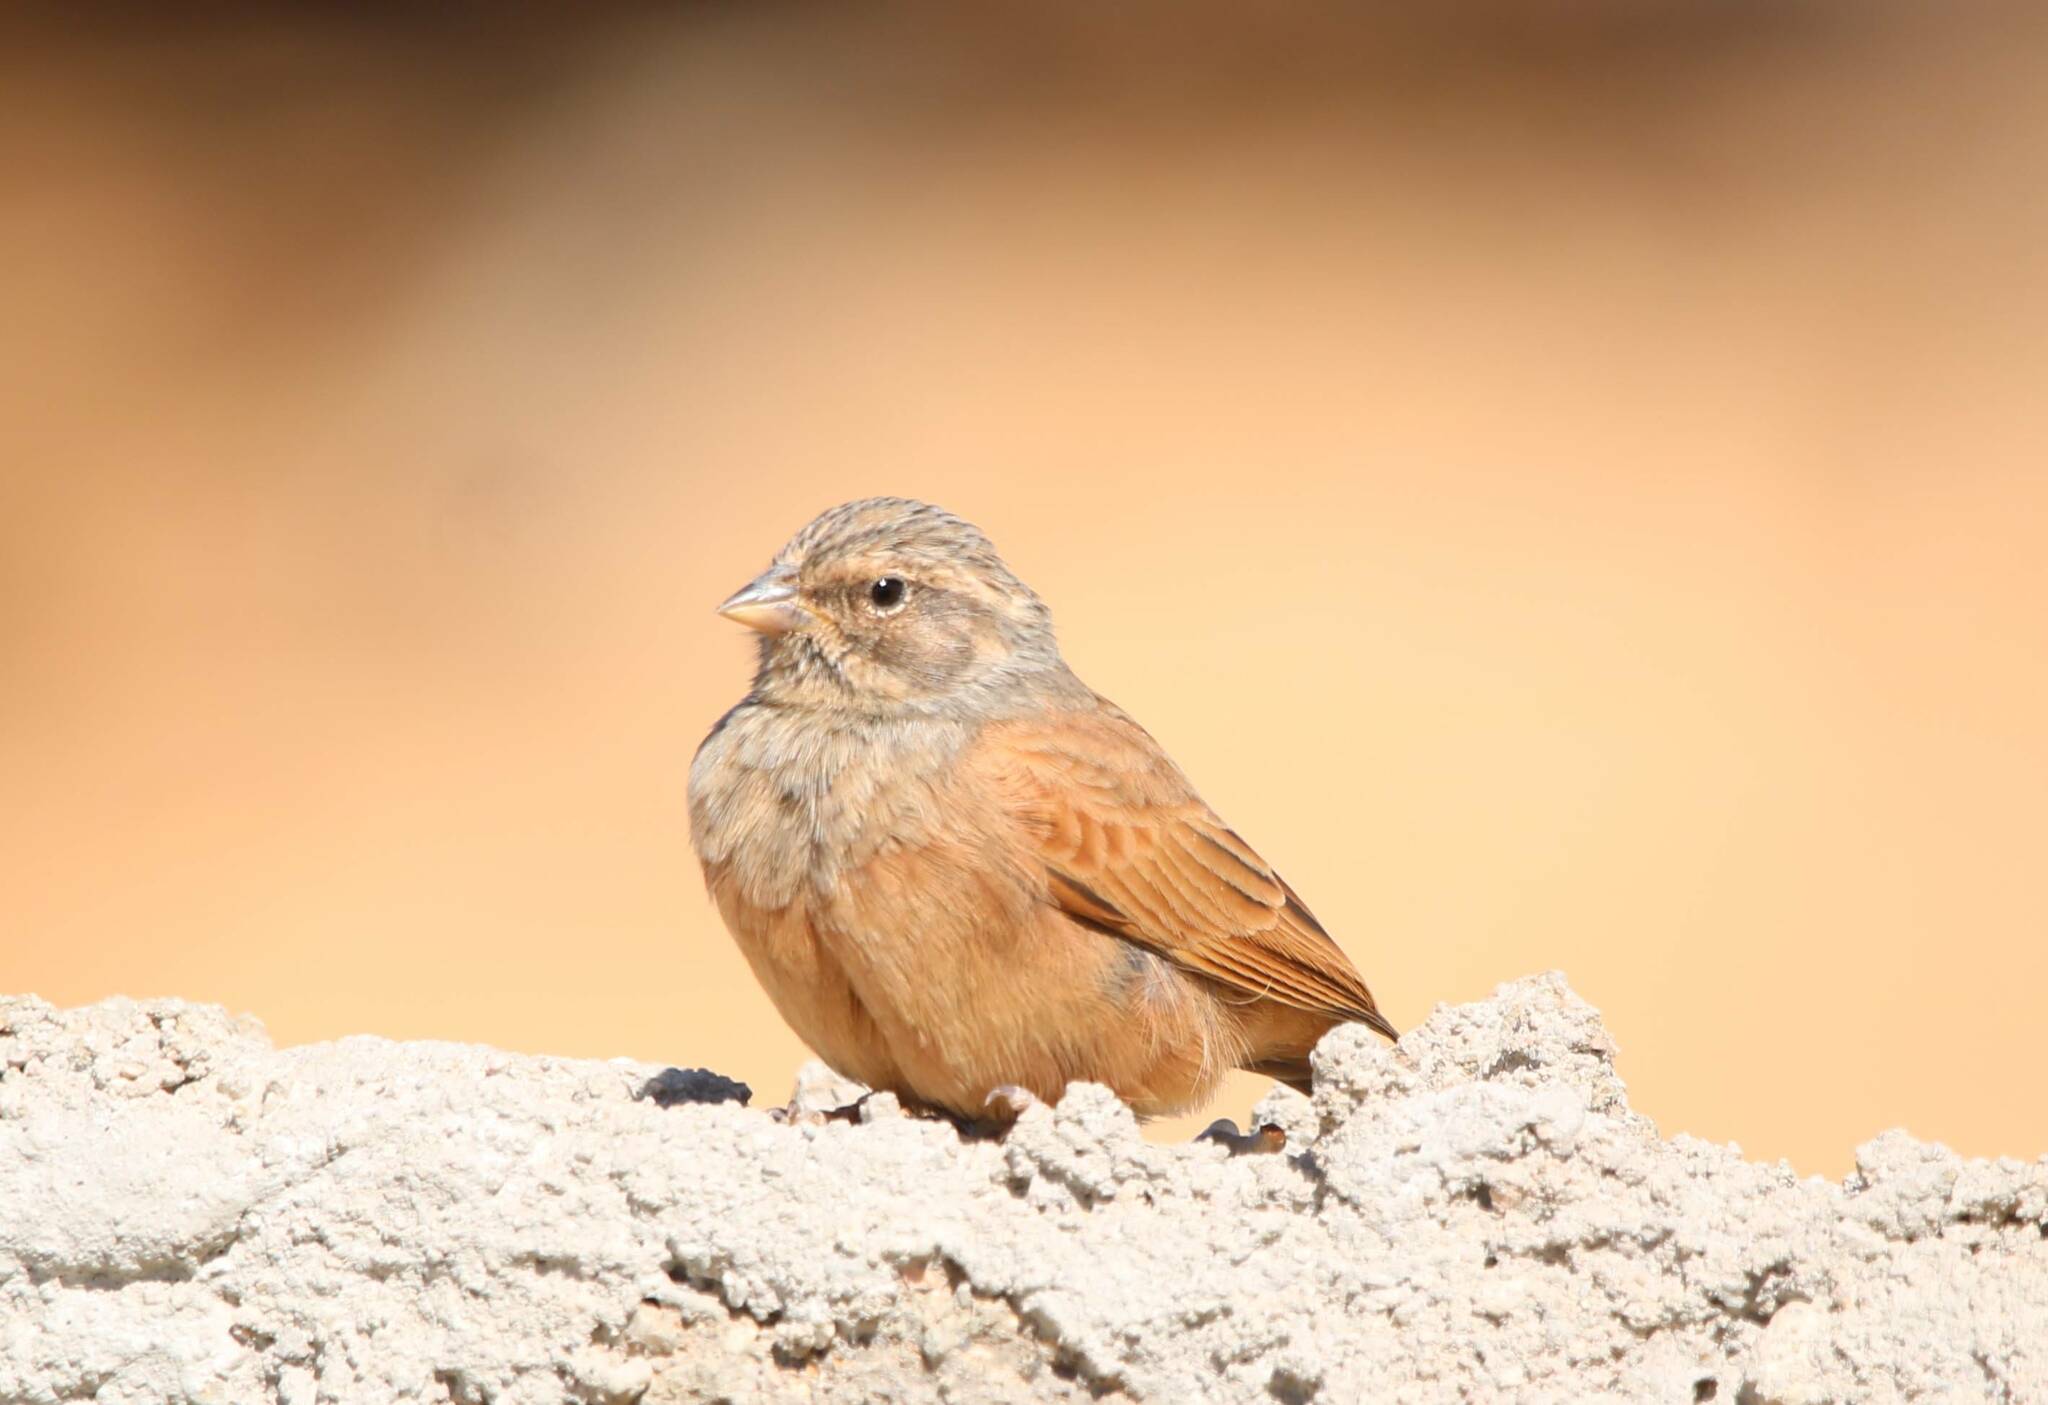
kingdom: Animalia
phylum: Chordata
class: Aves
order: Passeriformes
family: Emberizidae
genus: Emberiza
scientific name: Emberiza sahari
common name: House bunting
